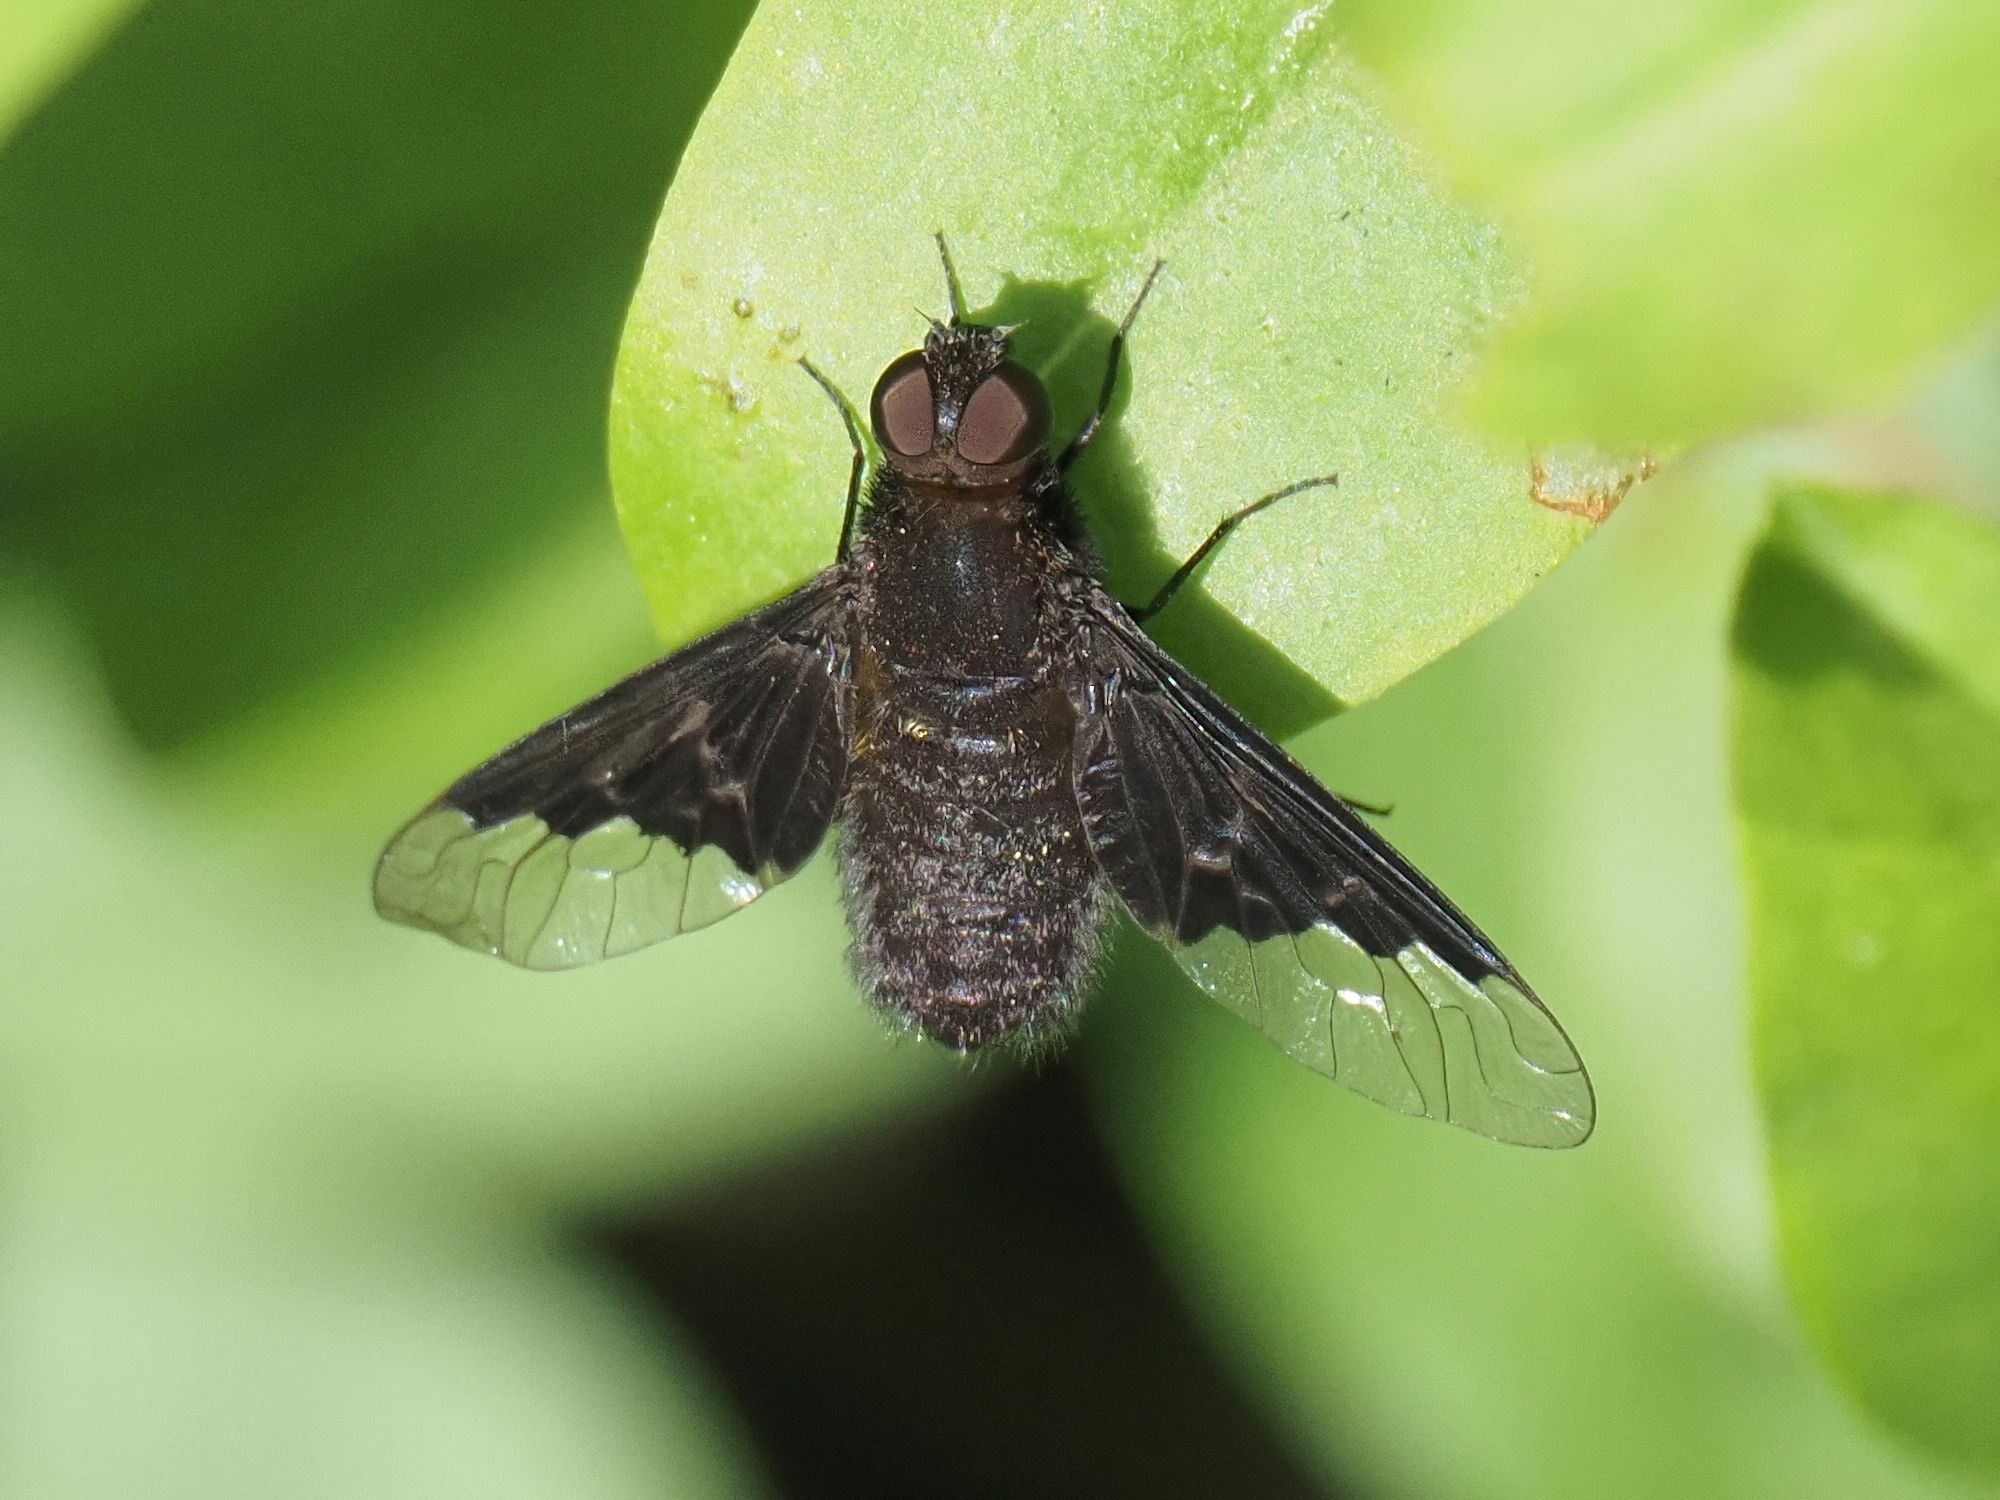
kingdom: Animalia
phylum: Arthropoda
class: Insecta
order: Diptera
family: Bombyliidae
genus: Hemipenthes
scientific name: Hemipenthes morio
